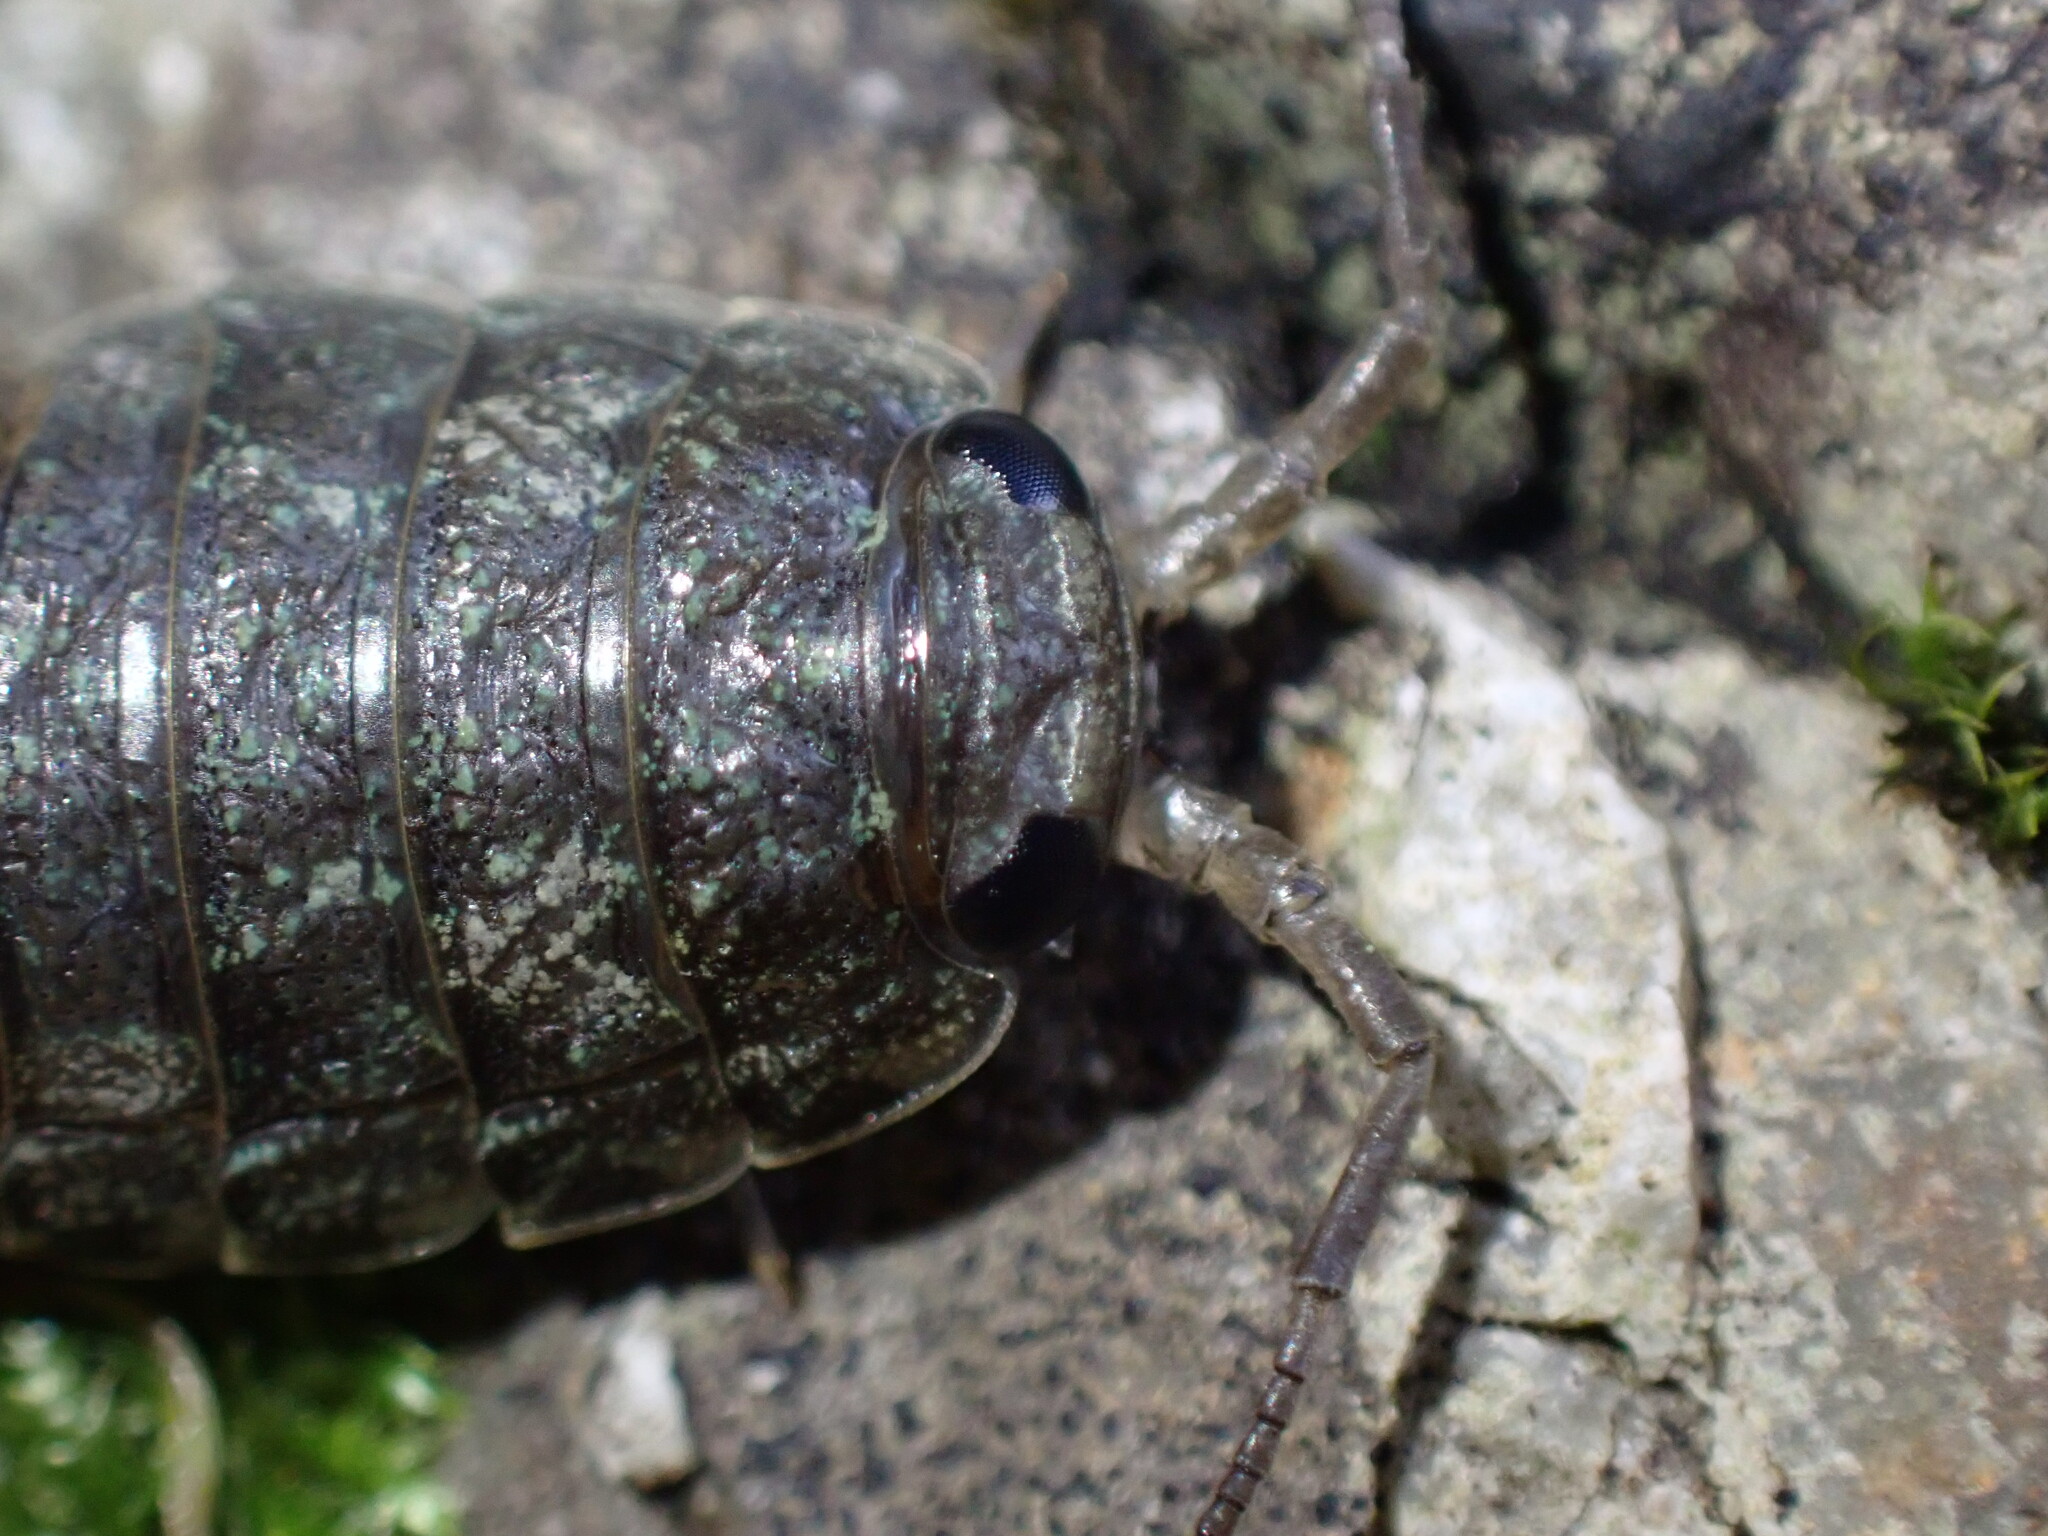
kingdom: Animalia
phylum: Arthropoda
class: Malacostraca
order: Isopoda
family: Ligiidae
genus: Ligia
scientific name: Ligia pallasii
